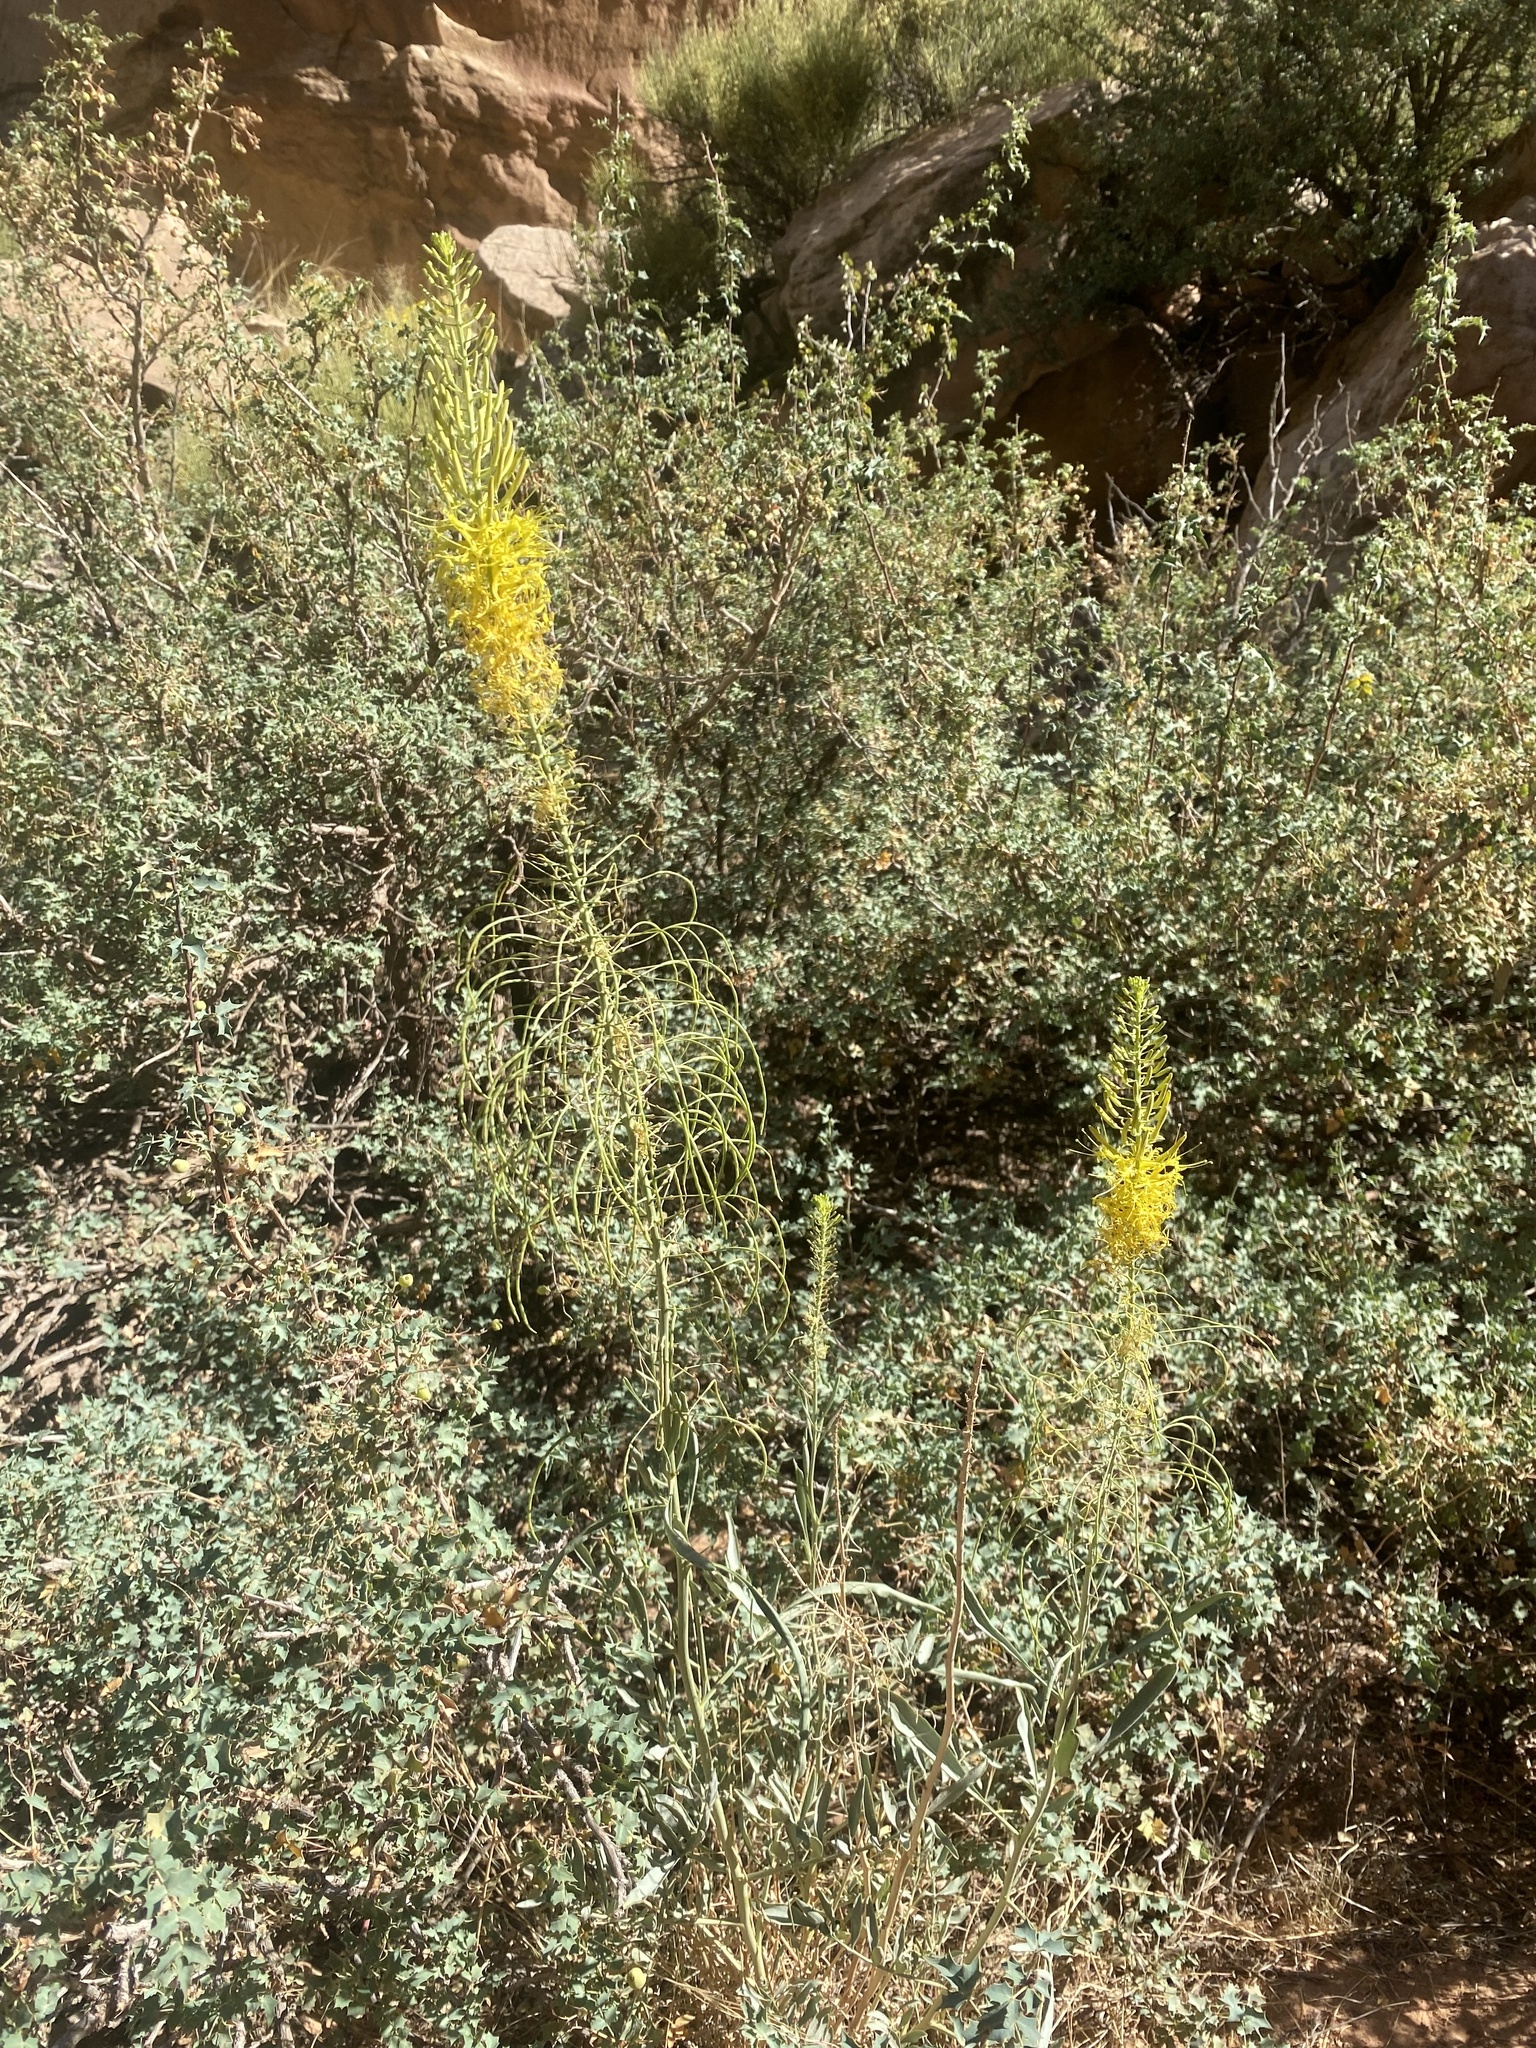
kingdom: Plantae
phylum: Tracheophyta
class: Magnoliopsida
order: Brassicales
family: Brassicaceae
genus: Stanleya
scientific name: Stanleya pinnata
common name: Prince's-plume
